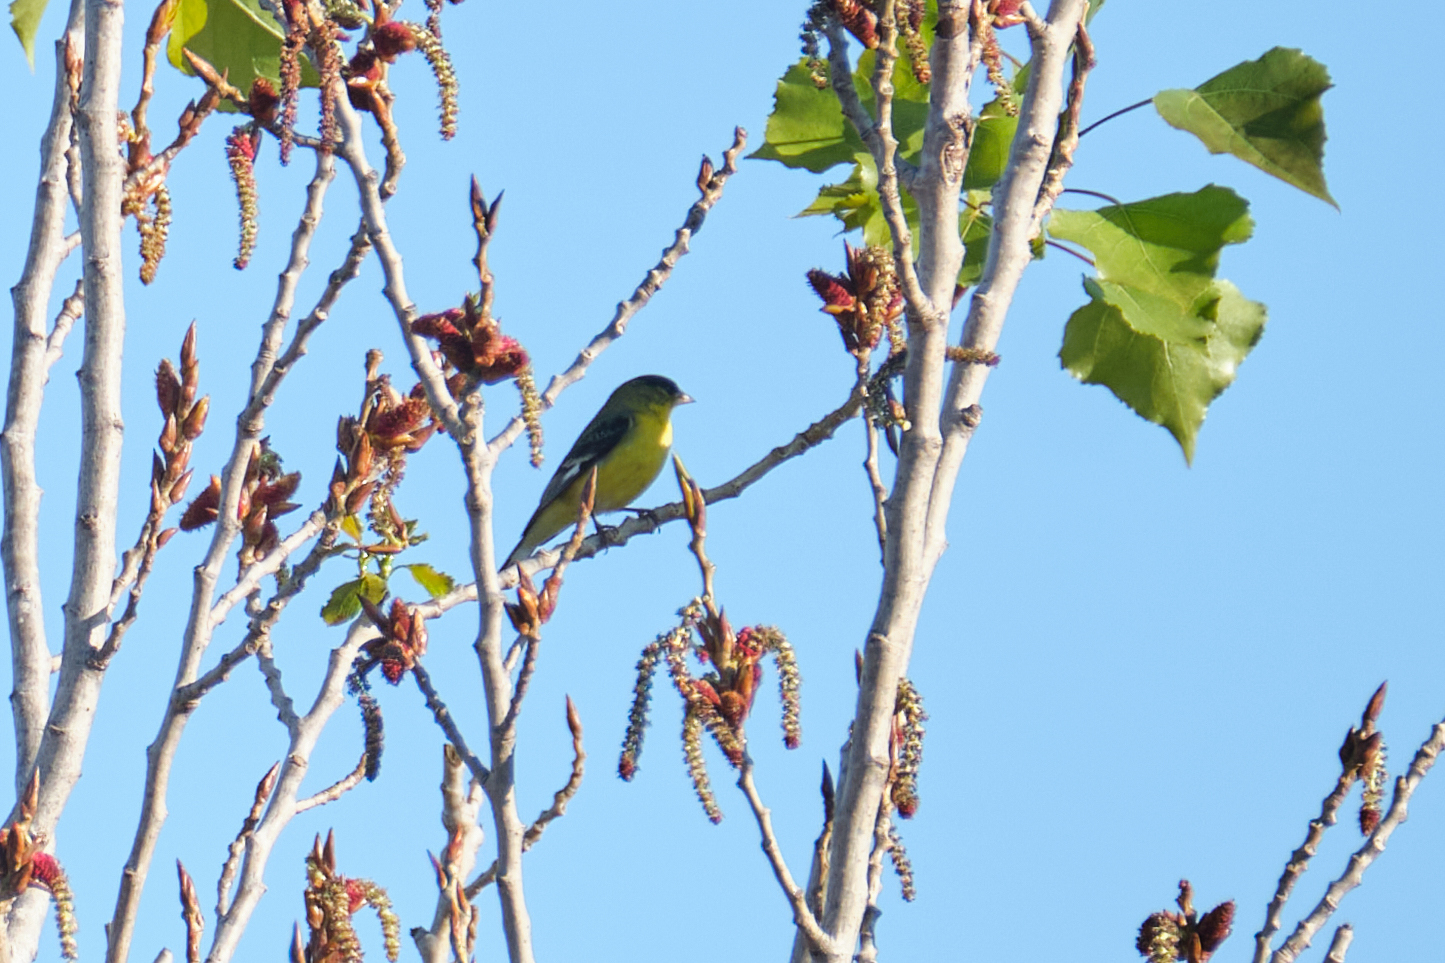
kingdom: Animalia
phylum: Chordata
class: Aves
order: Passeriformes
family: Fringillidae
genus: Spinus
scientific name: Spinus psaltria
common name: Lesser goldfinch
